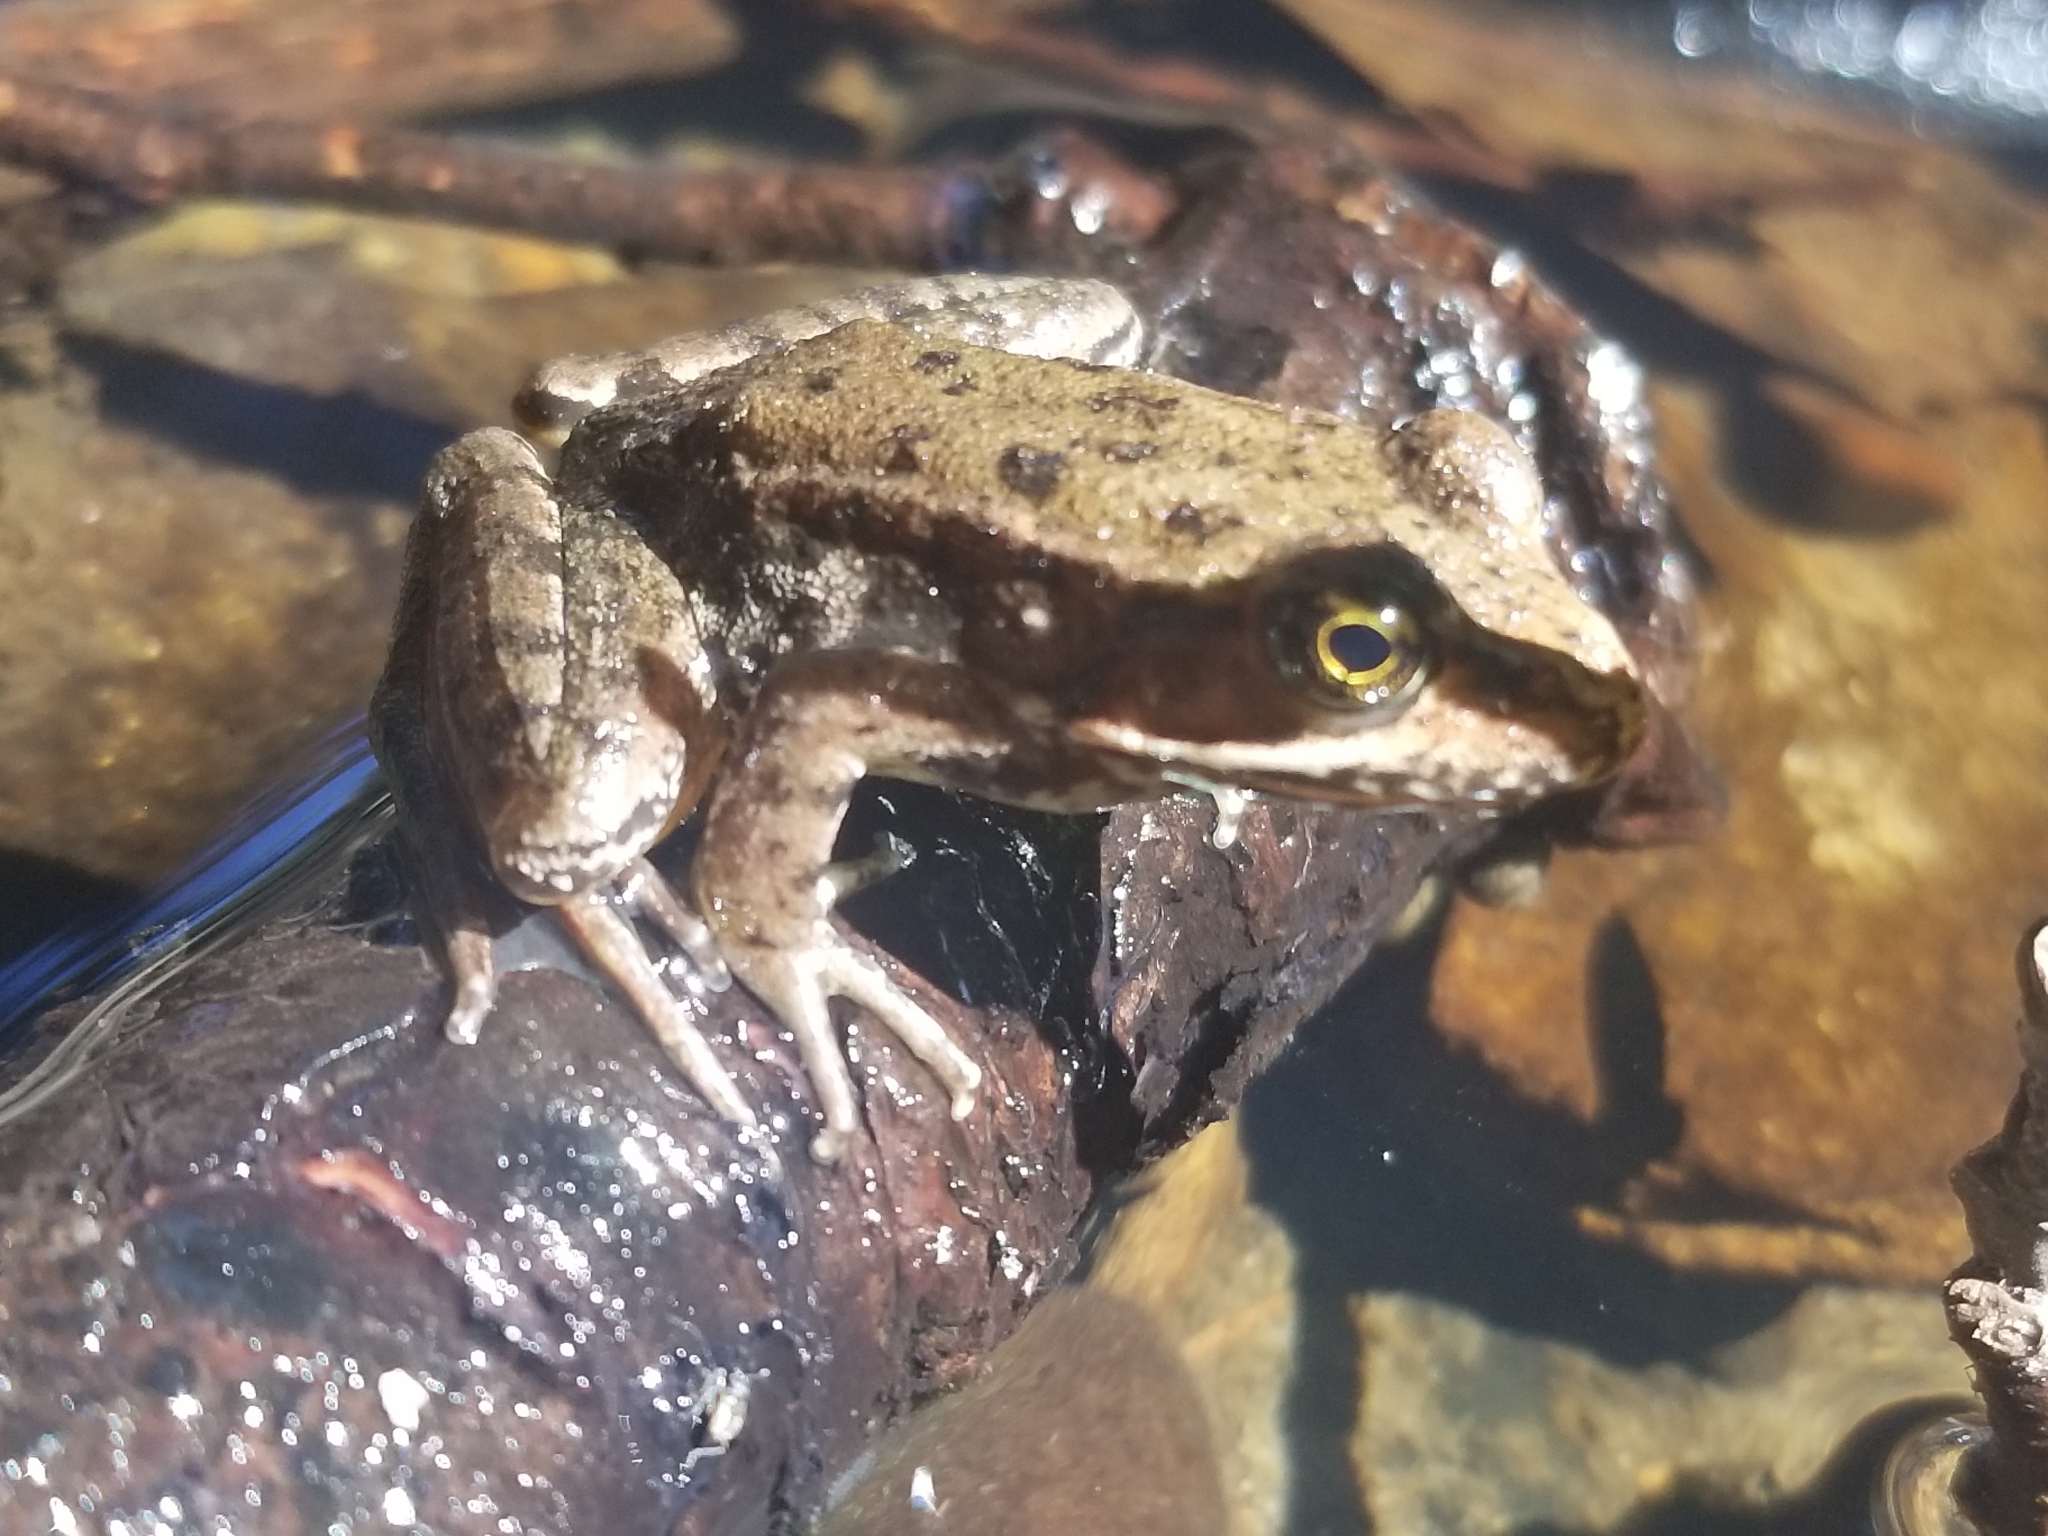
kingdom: Animalia
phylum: Chordata
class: Amphibia
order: Anura
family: Ranidae
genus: Rana
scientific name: Rana aurora
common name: Red-legged frog
